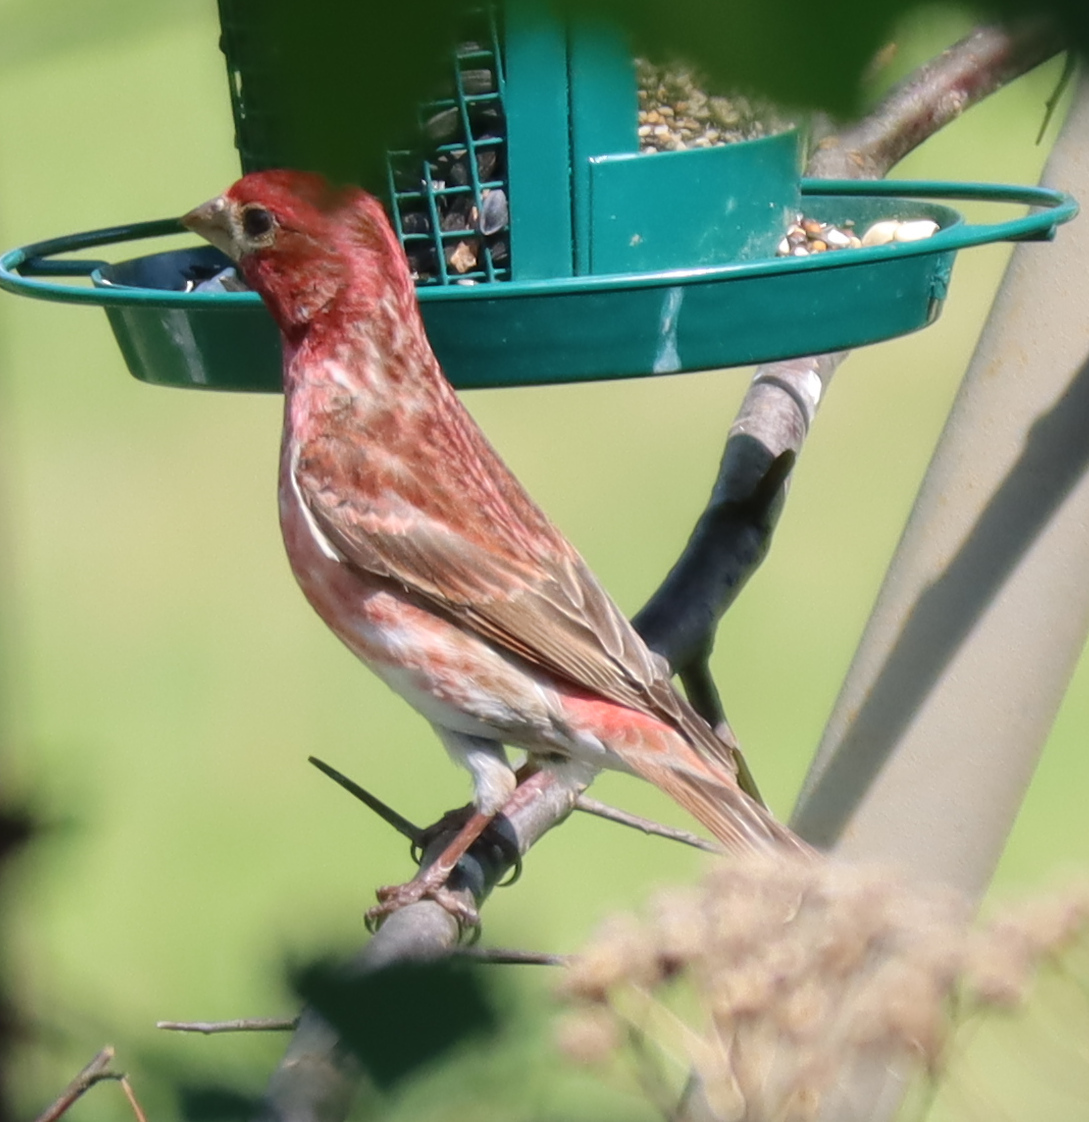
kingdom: Animalia
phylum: Chordata
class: Aves
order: Passeriformes
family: Fringillidae
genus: Haemorhous
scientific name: Haemorhous purpureus
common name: Purple finch
